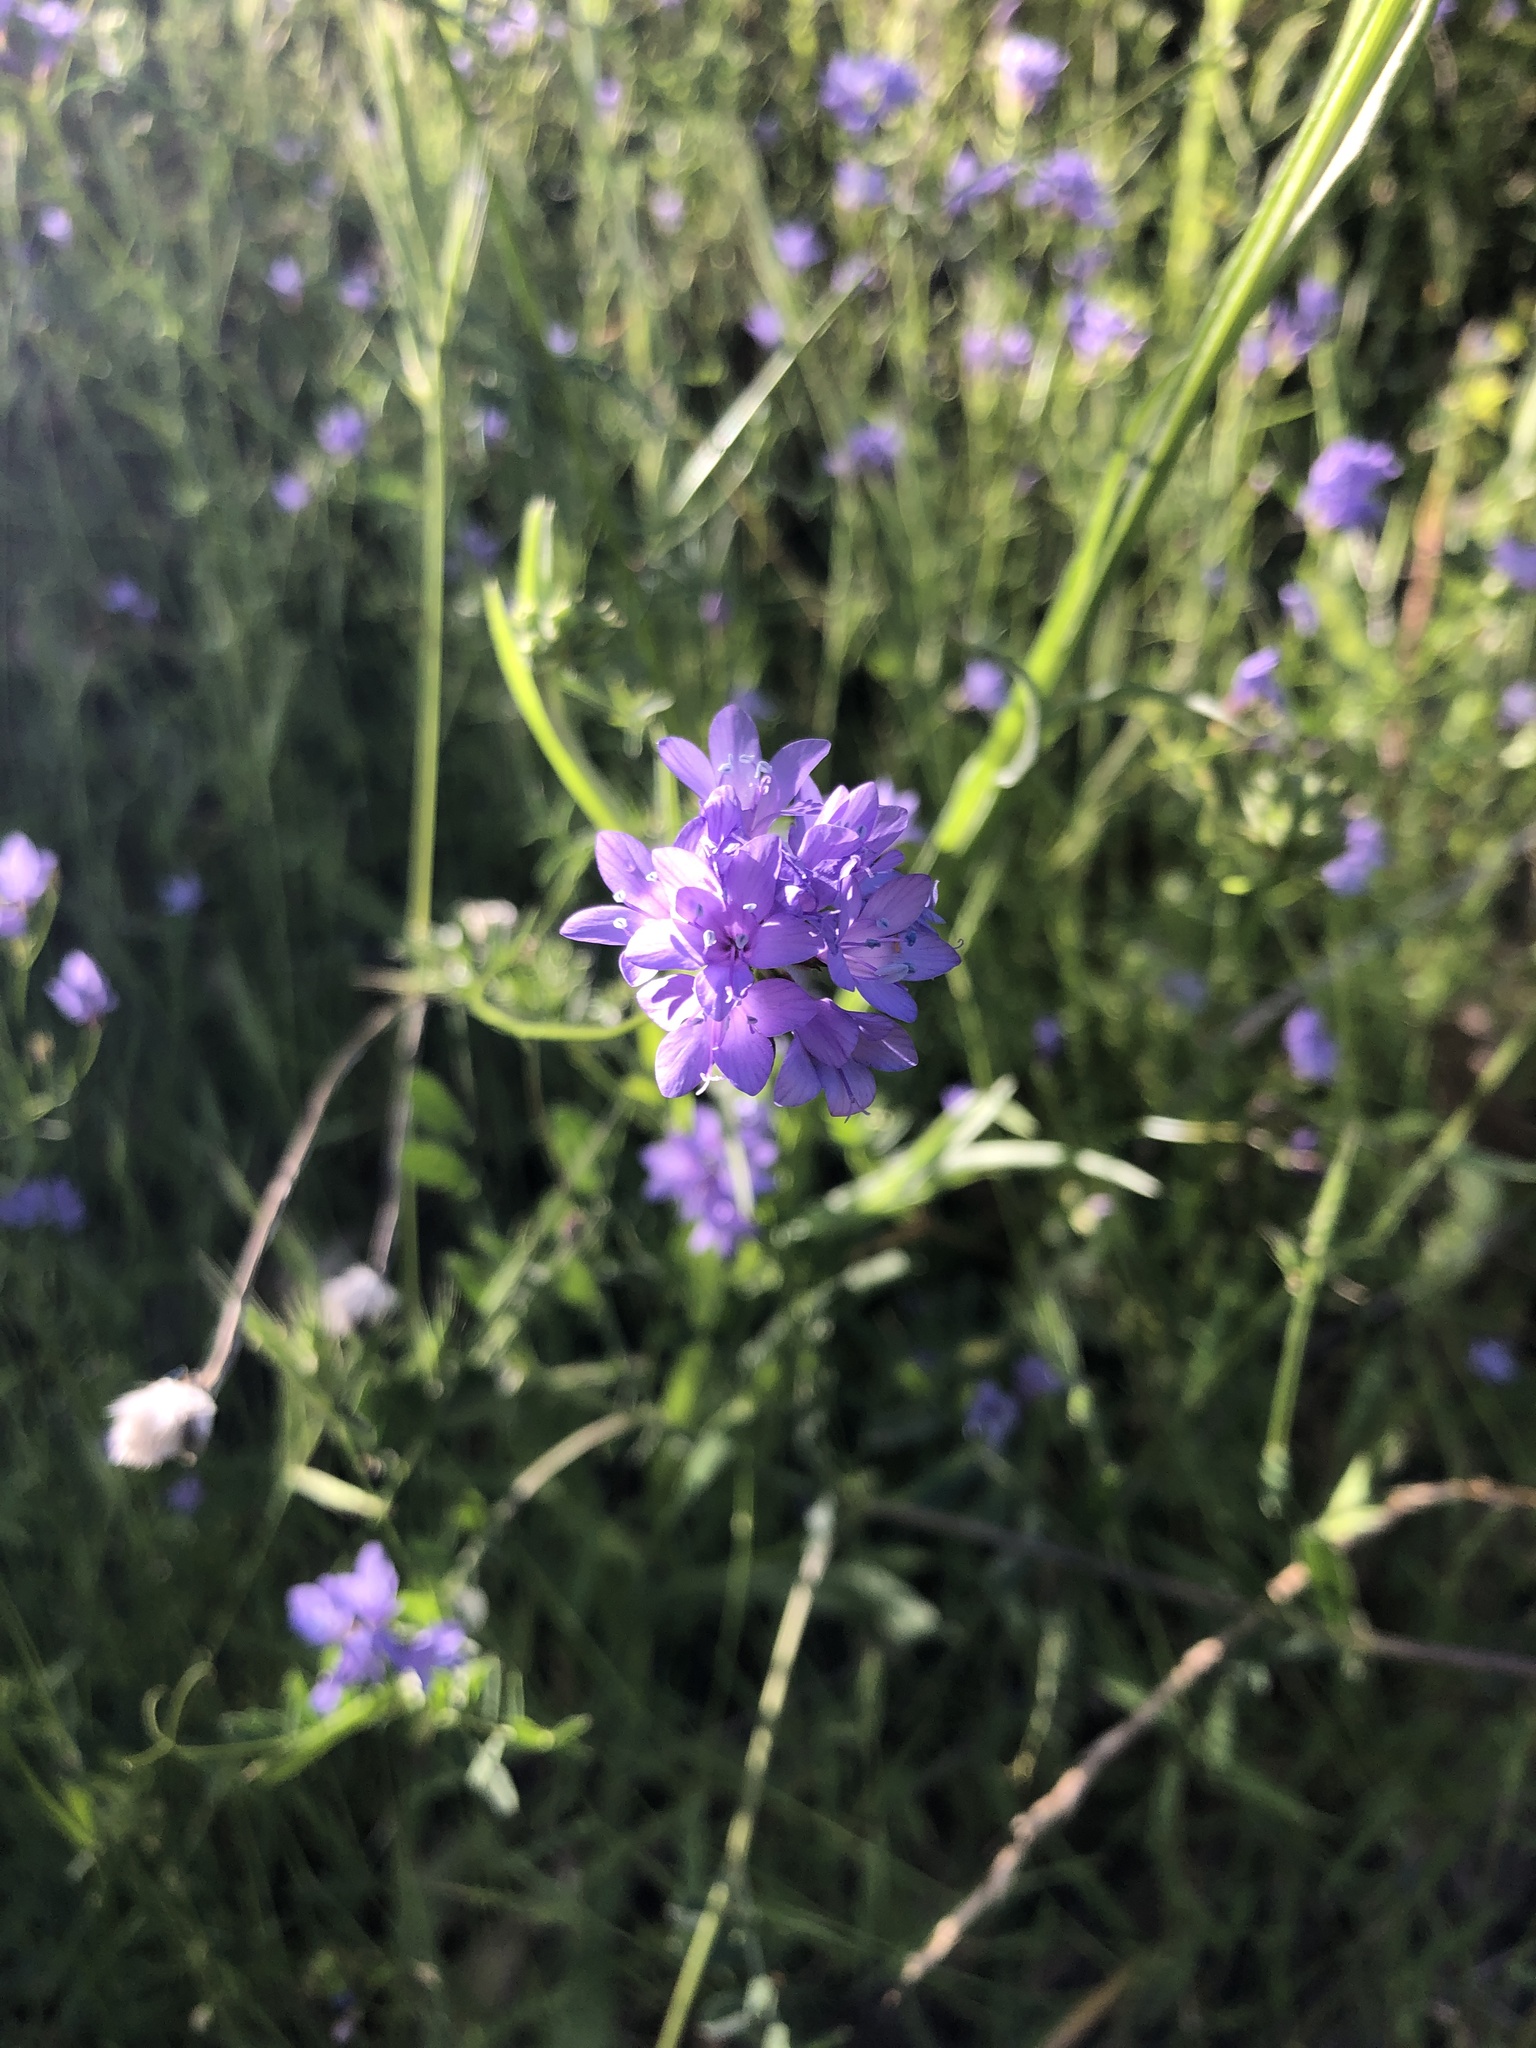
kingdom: Plantae
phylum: Tracheophyta
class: Magnoliopsida
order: Ericales
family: Polemoniaceae
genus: Gilia
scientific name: Gilia achilleifolia
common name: California gily-flower
